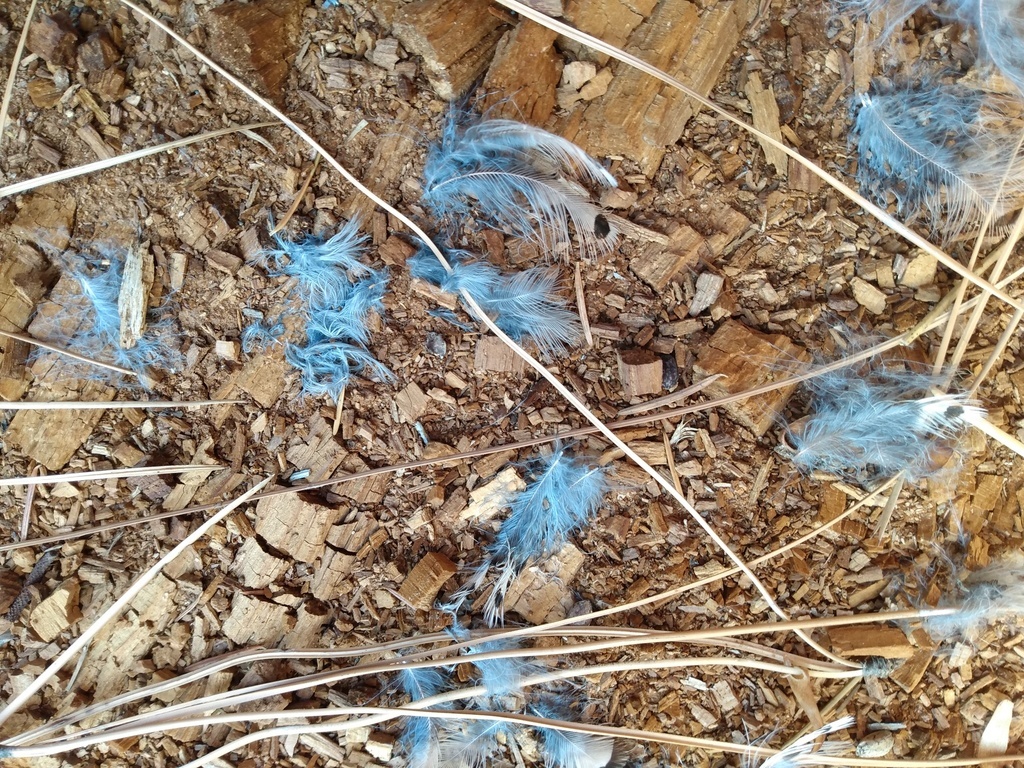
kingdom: Animalia
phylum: Chordata
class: Aves
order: Piciformes
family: Picidae
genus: Colaptes
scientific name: Colaptes auratus
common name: Northern flicker
